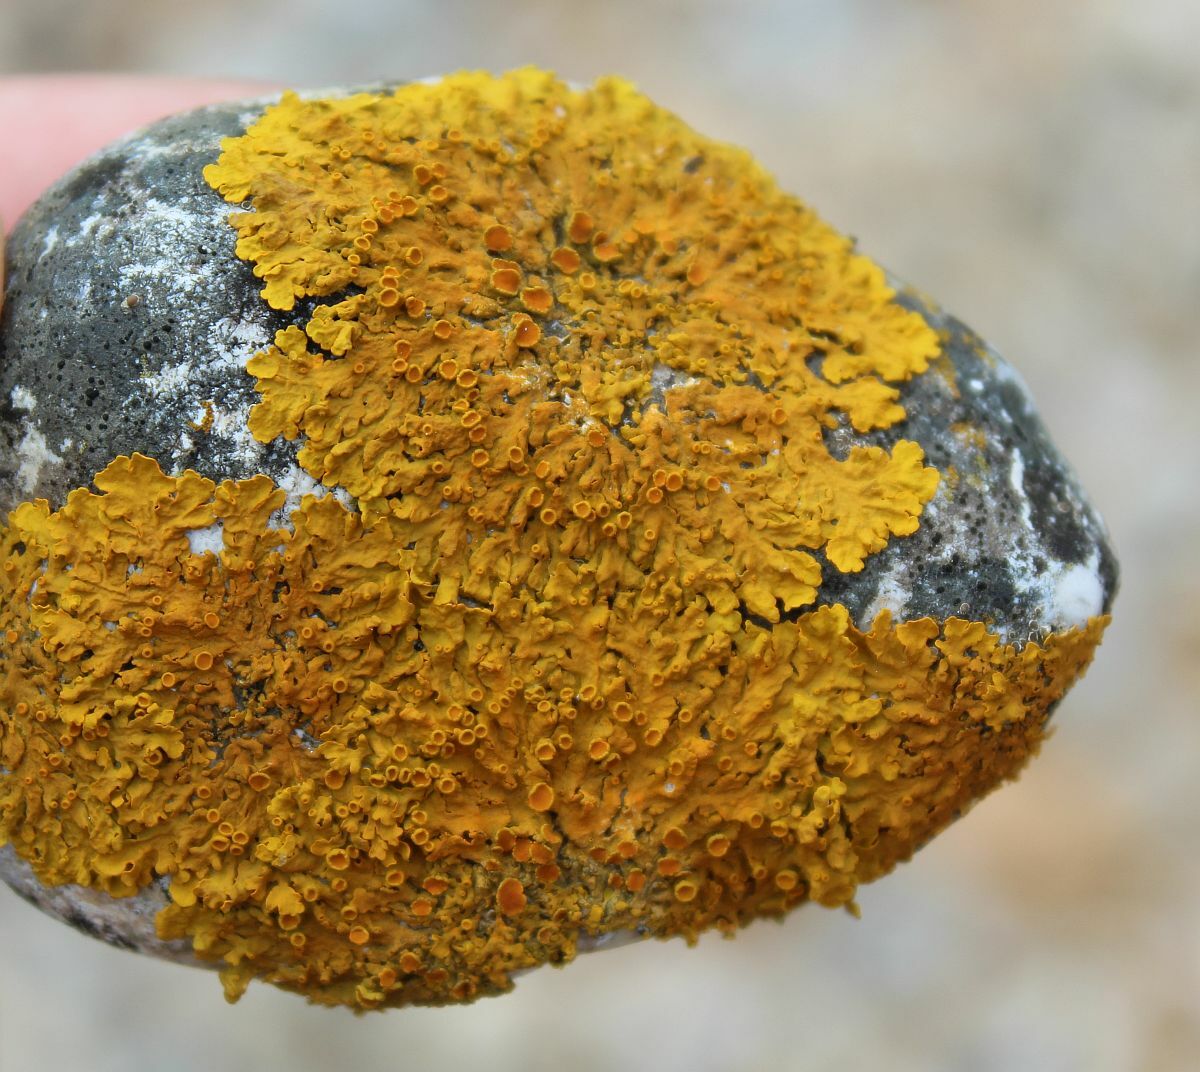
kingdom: Fungi
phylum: Ascomycota
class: Lecanoromycetes
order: Teloschistales
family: Teloschistaceae
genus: Xanthoria
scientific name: Xanthoria parietina
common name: Common orange lichen
